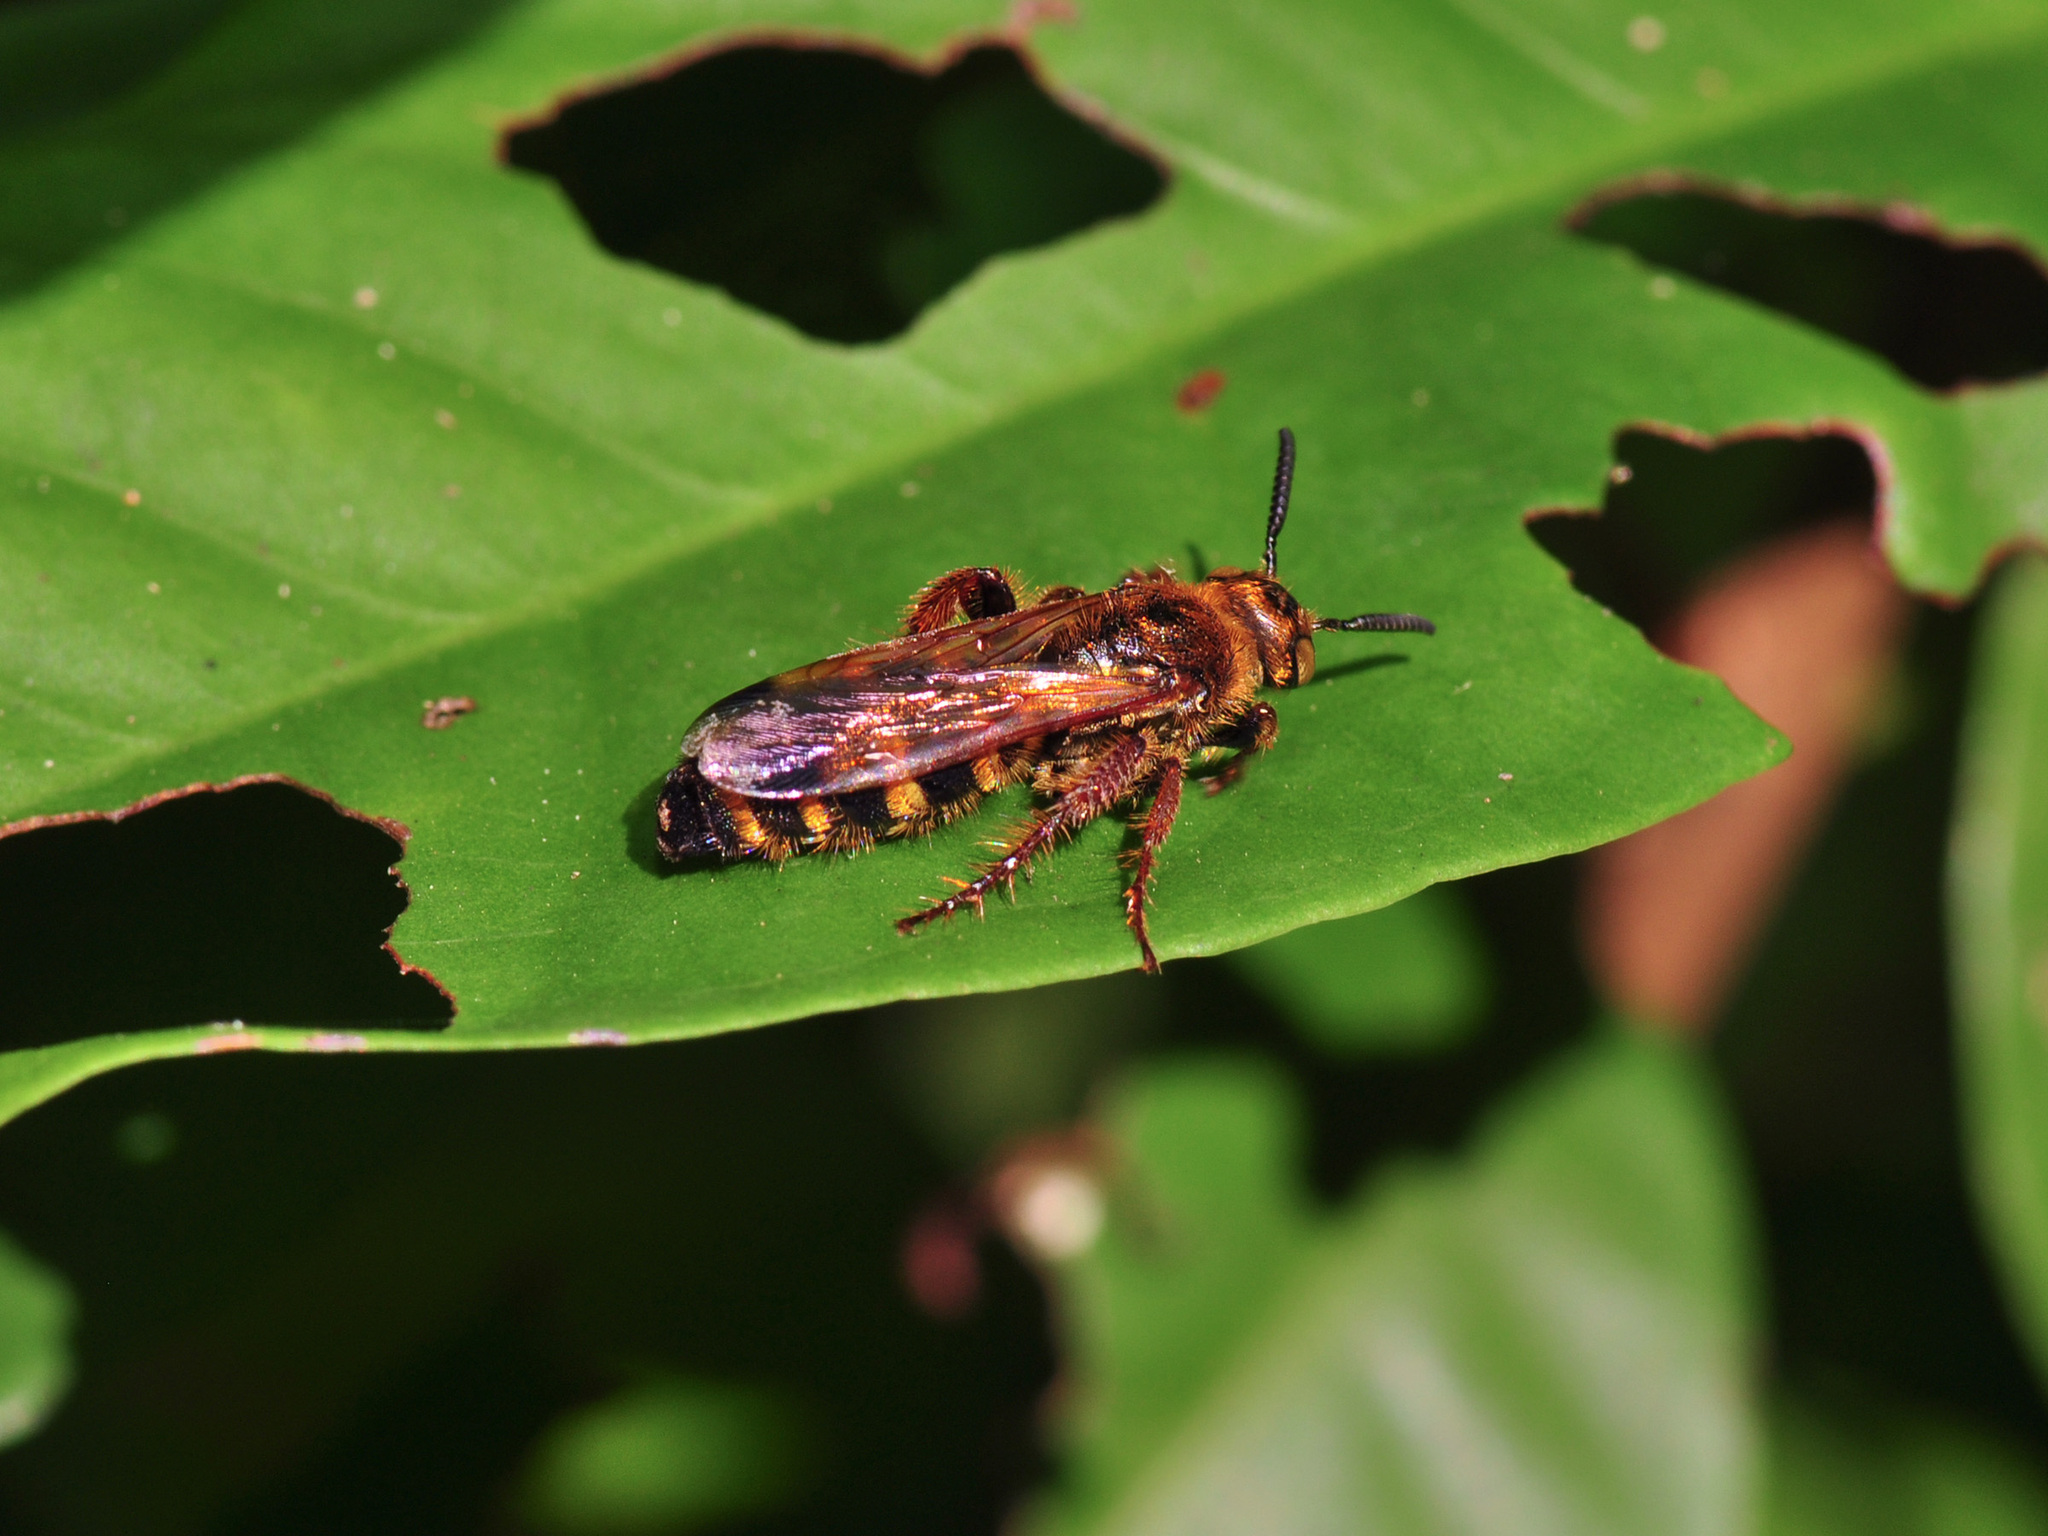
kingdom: Animalia
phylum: Arthropoda
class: Insecta
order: Hymenoptera
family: Scoliidae
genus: Campsomeris
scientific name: Campsomeris phalerata
